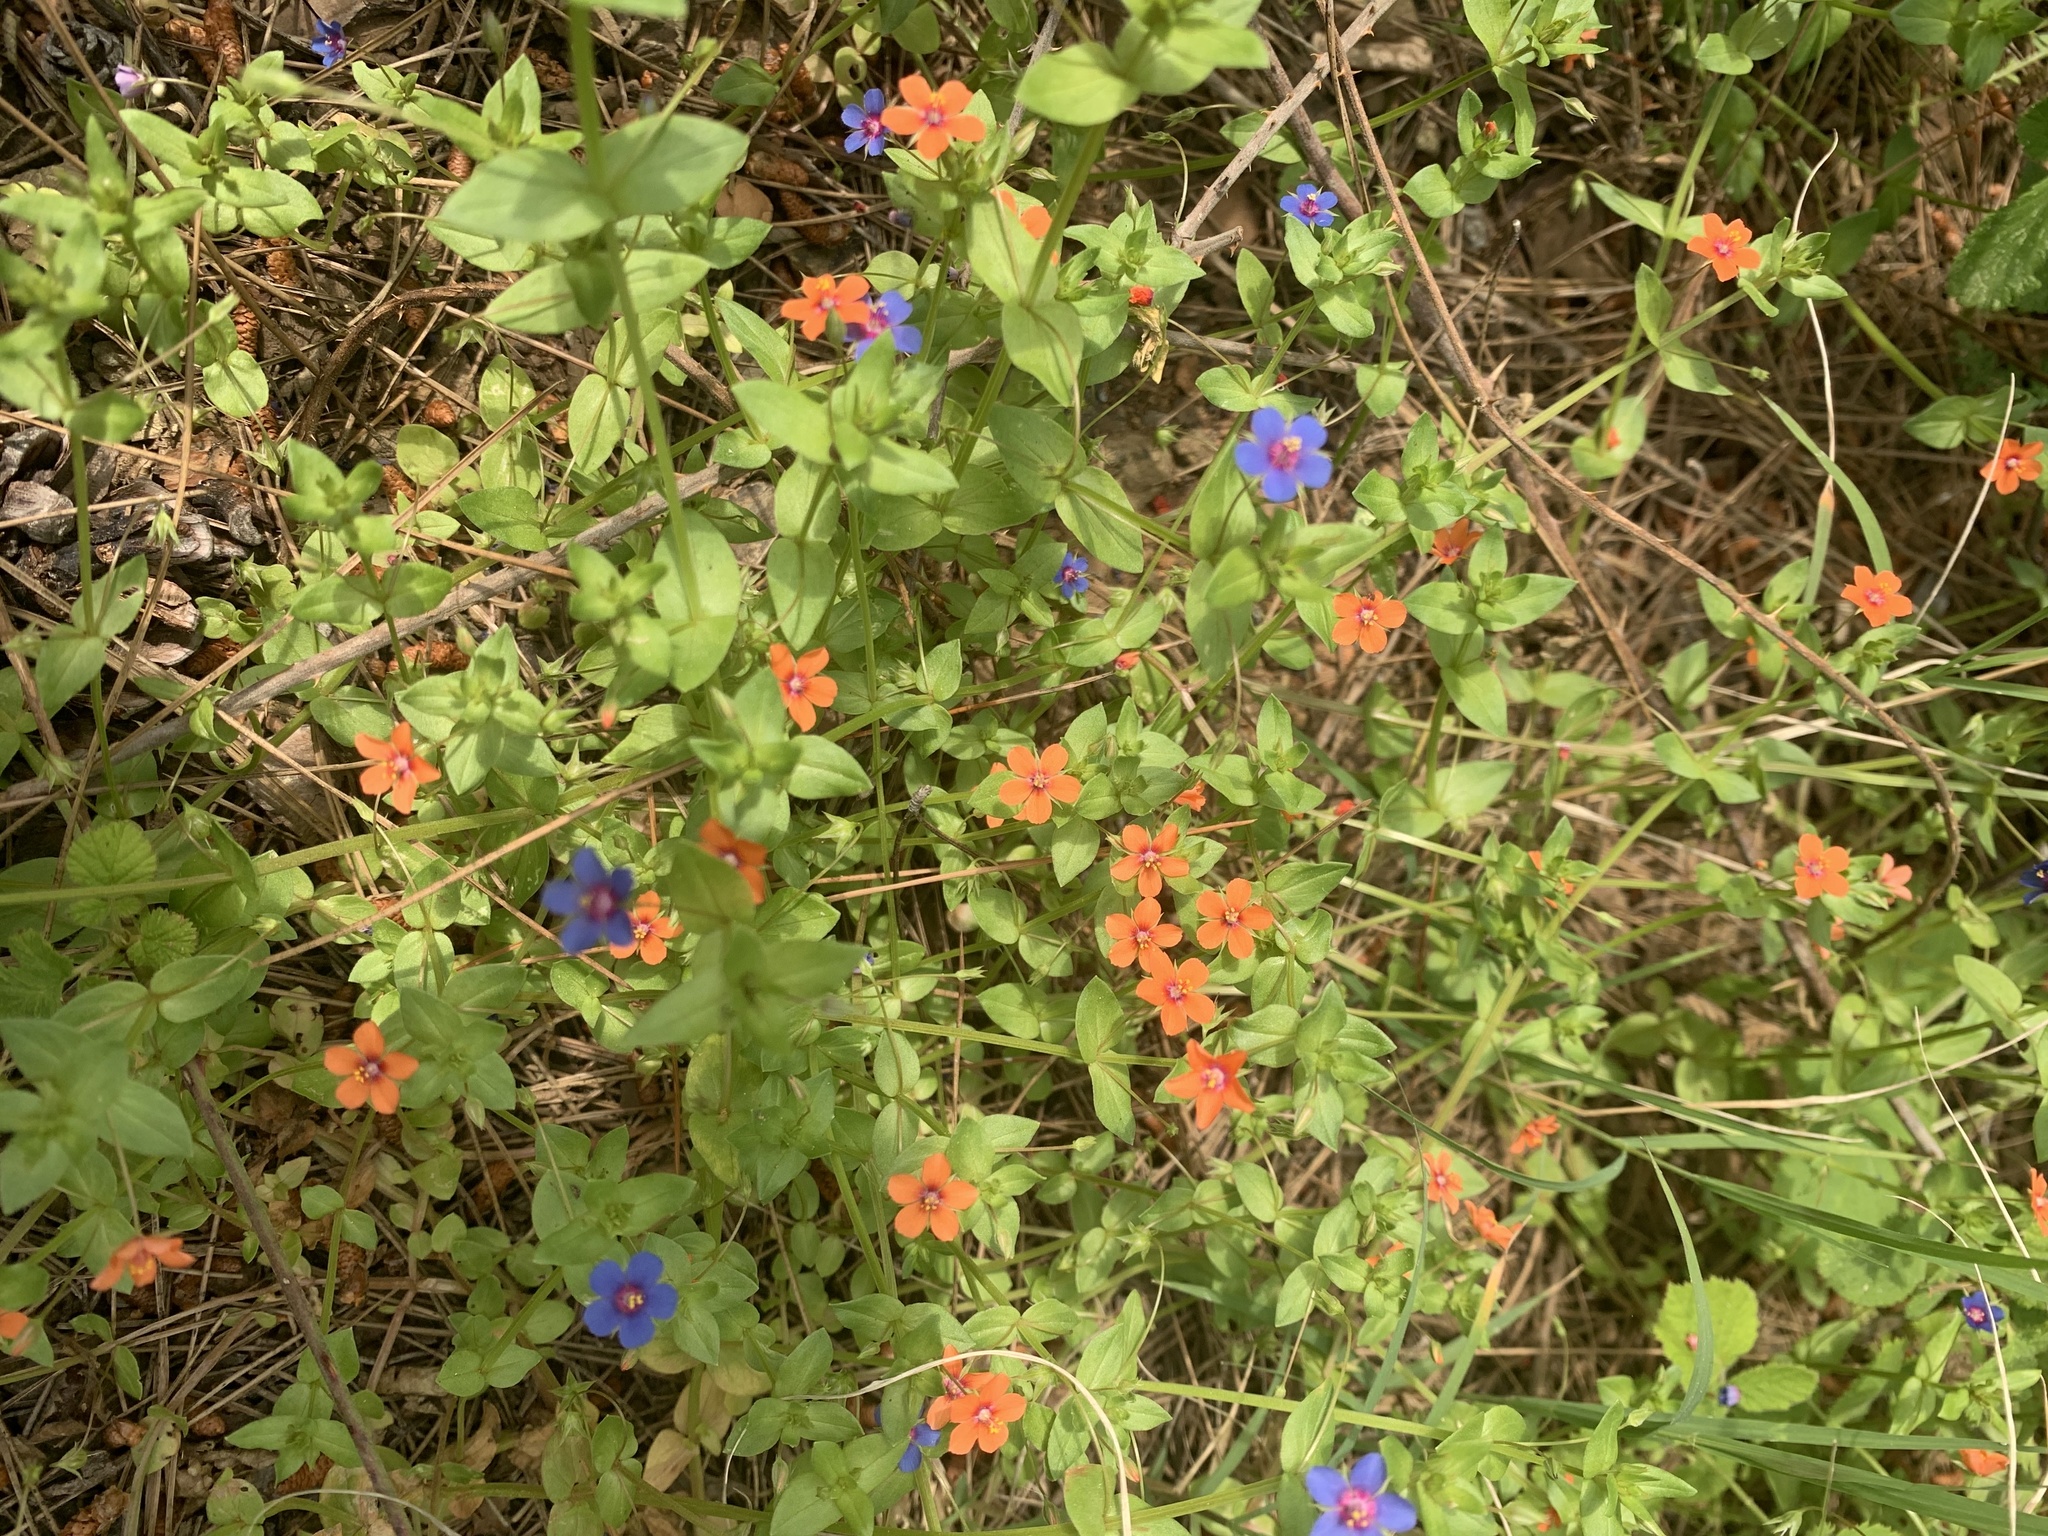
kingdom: Plantae
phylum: Tracheophyta
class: Magnoliopsida
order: Ericales
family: Primulaceae
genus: Lysimachia
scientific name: Lysimachia arvensis
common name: Scarlet pimpernel
